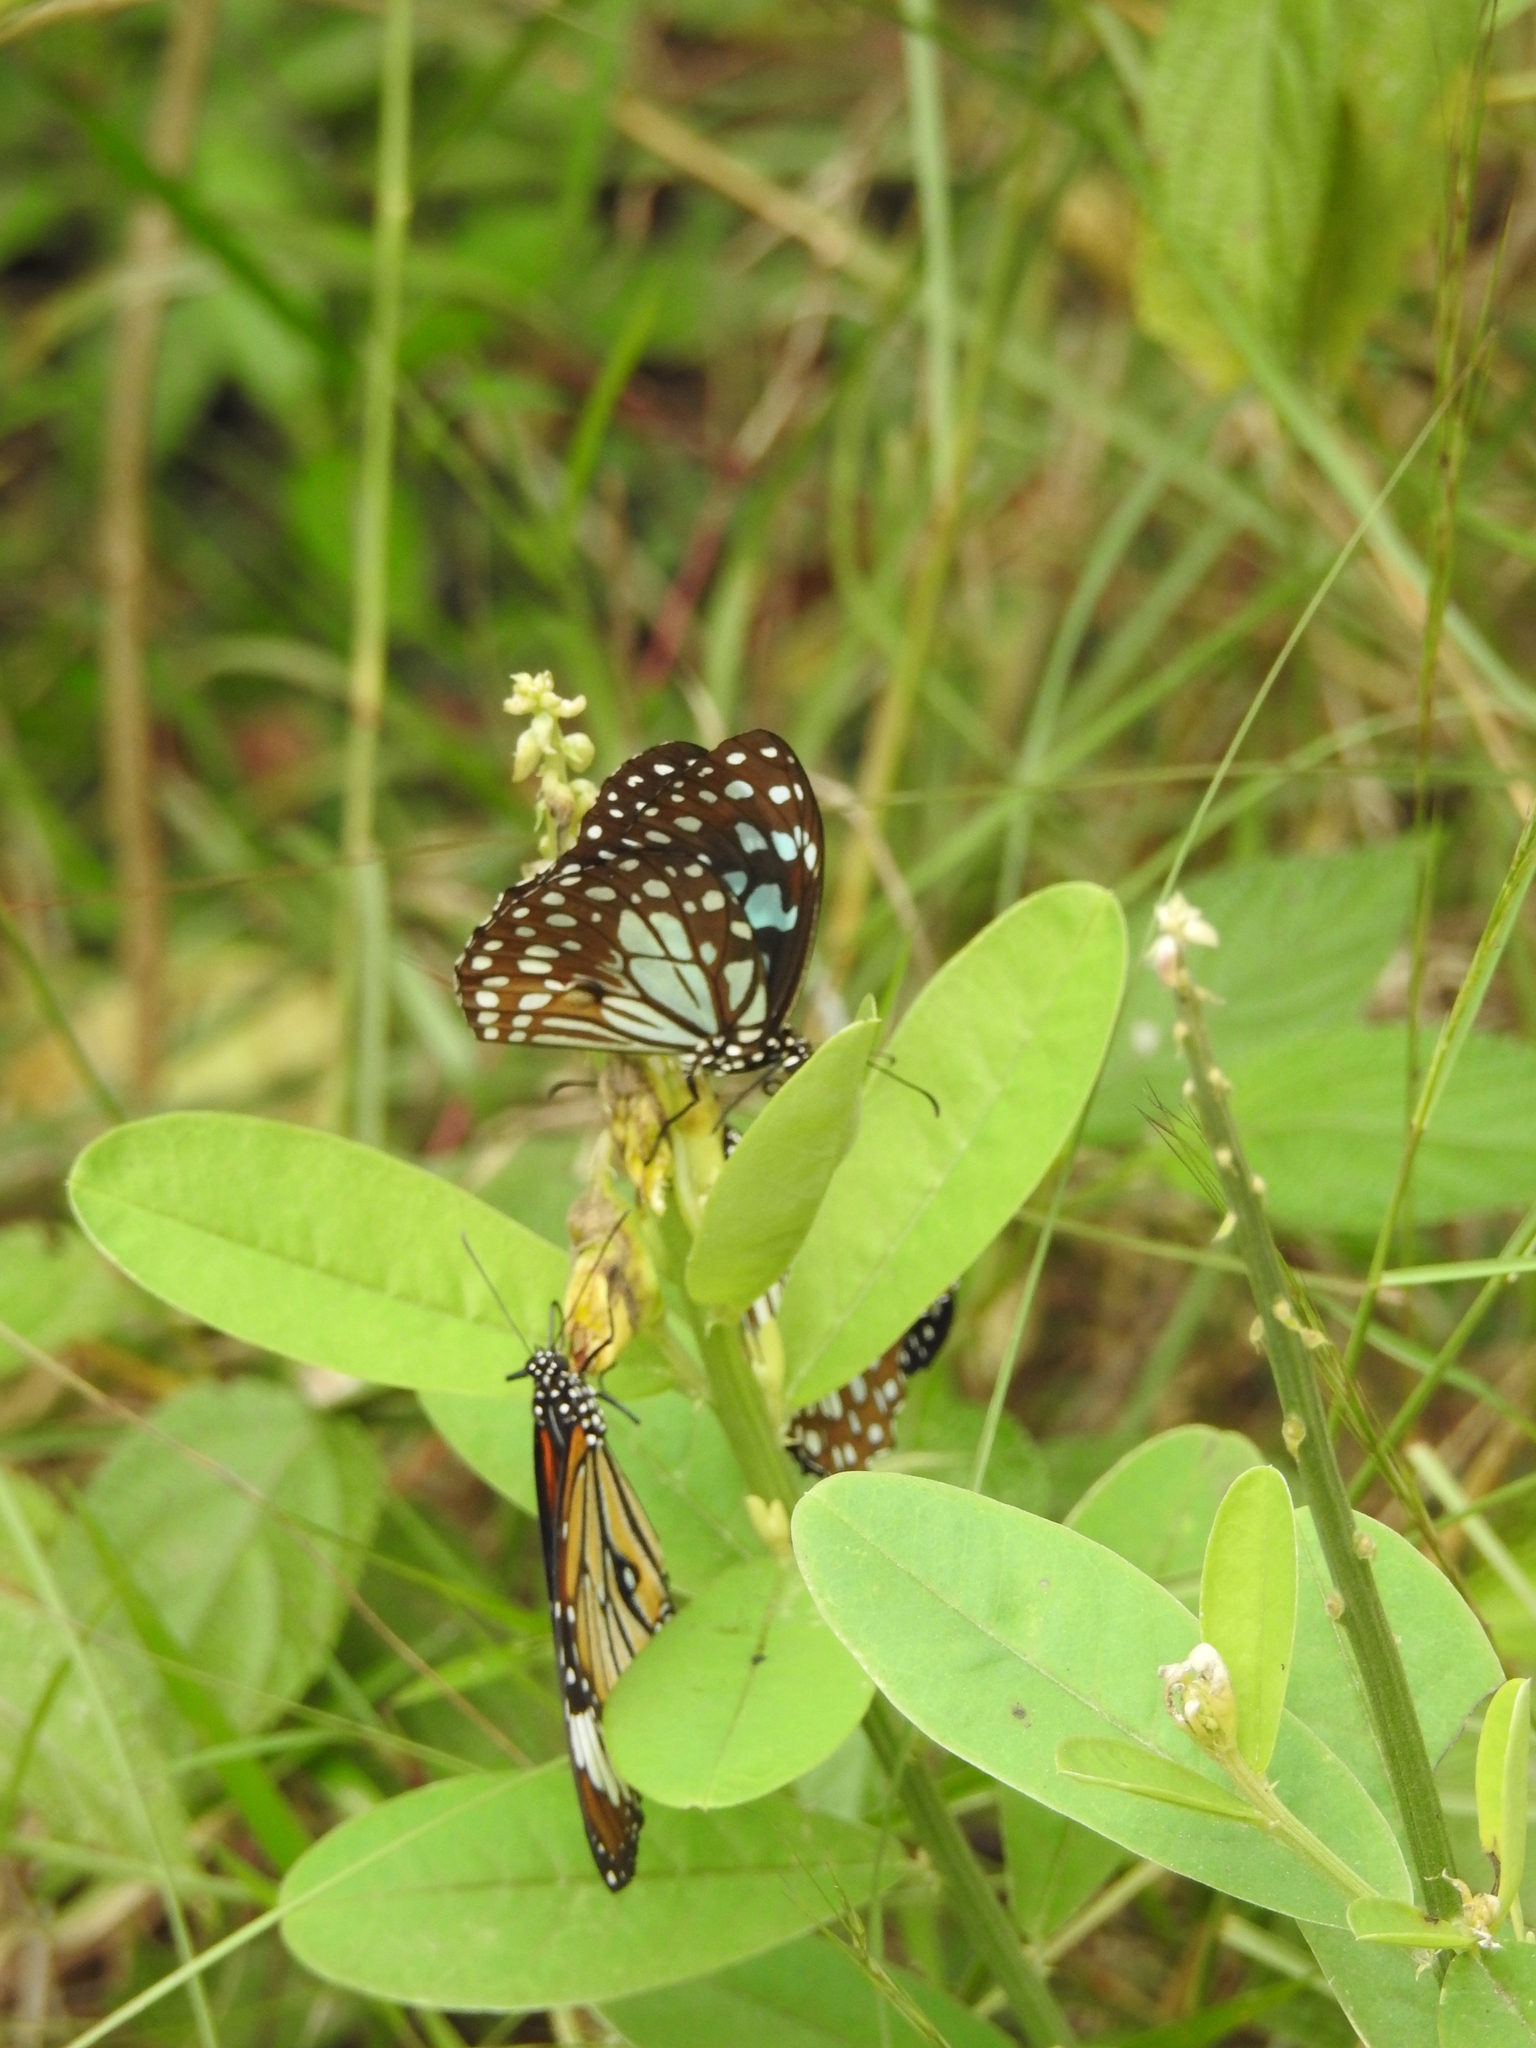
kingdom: Animalia
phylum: Arthropoda
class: Insecta
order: Lepidoptera
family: Nymphalidae
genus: Tirumala
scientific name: Tirumala limniace
